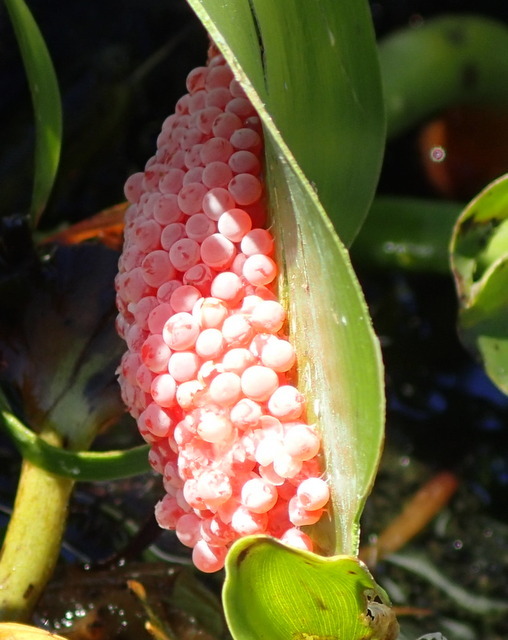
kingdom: Animalia
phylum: Mollusca
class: Gastropoda
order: Architaenioglossa
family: Ampullariidae
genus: Pomacea
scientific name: Pomacea maculata
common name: Giant applesnail
